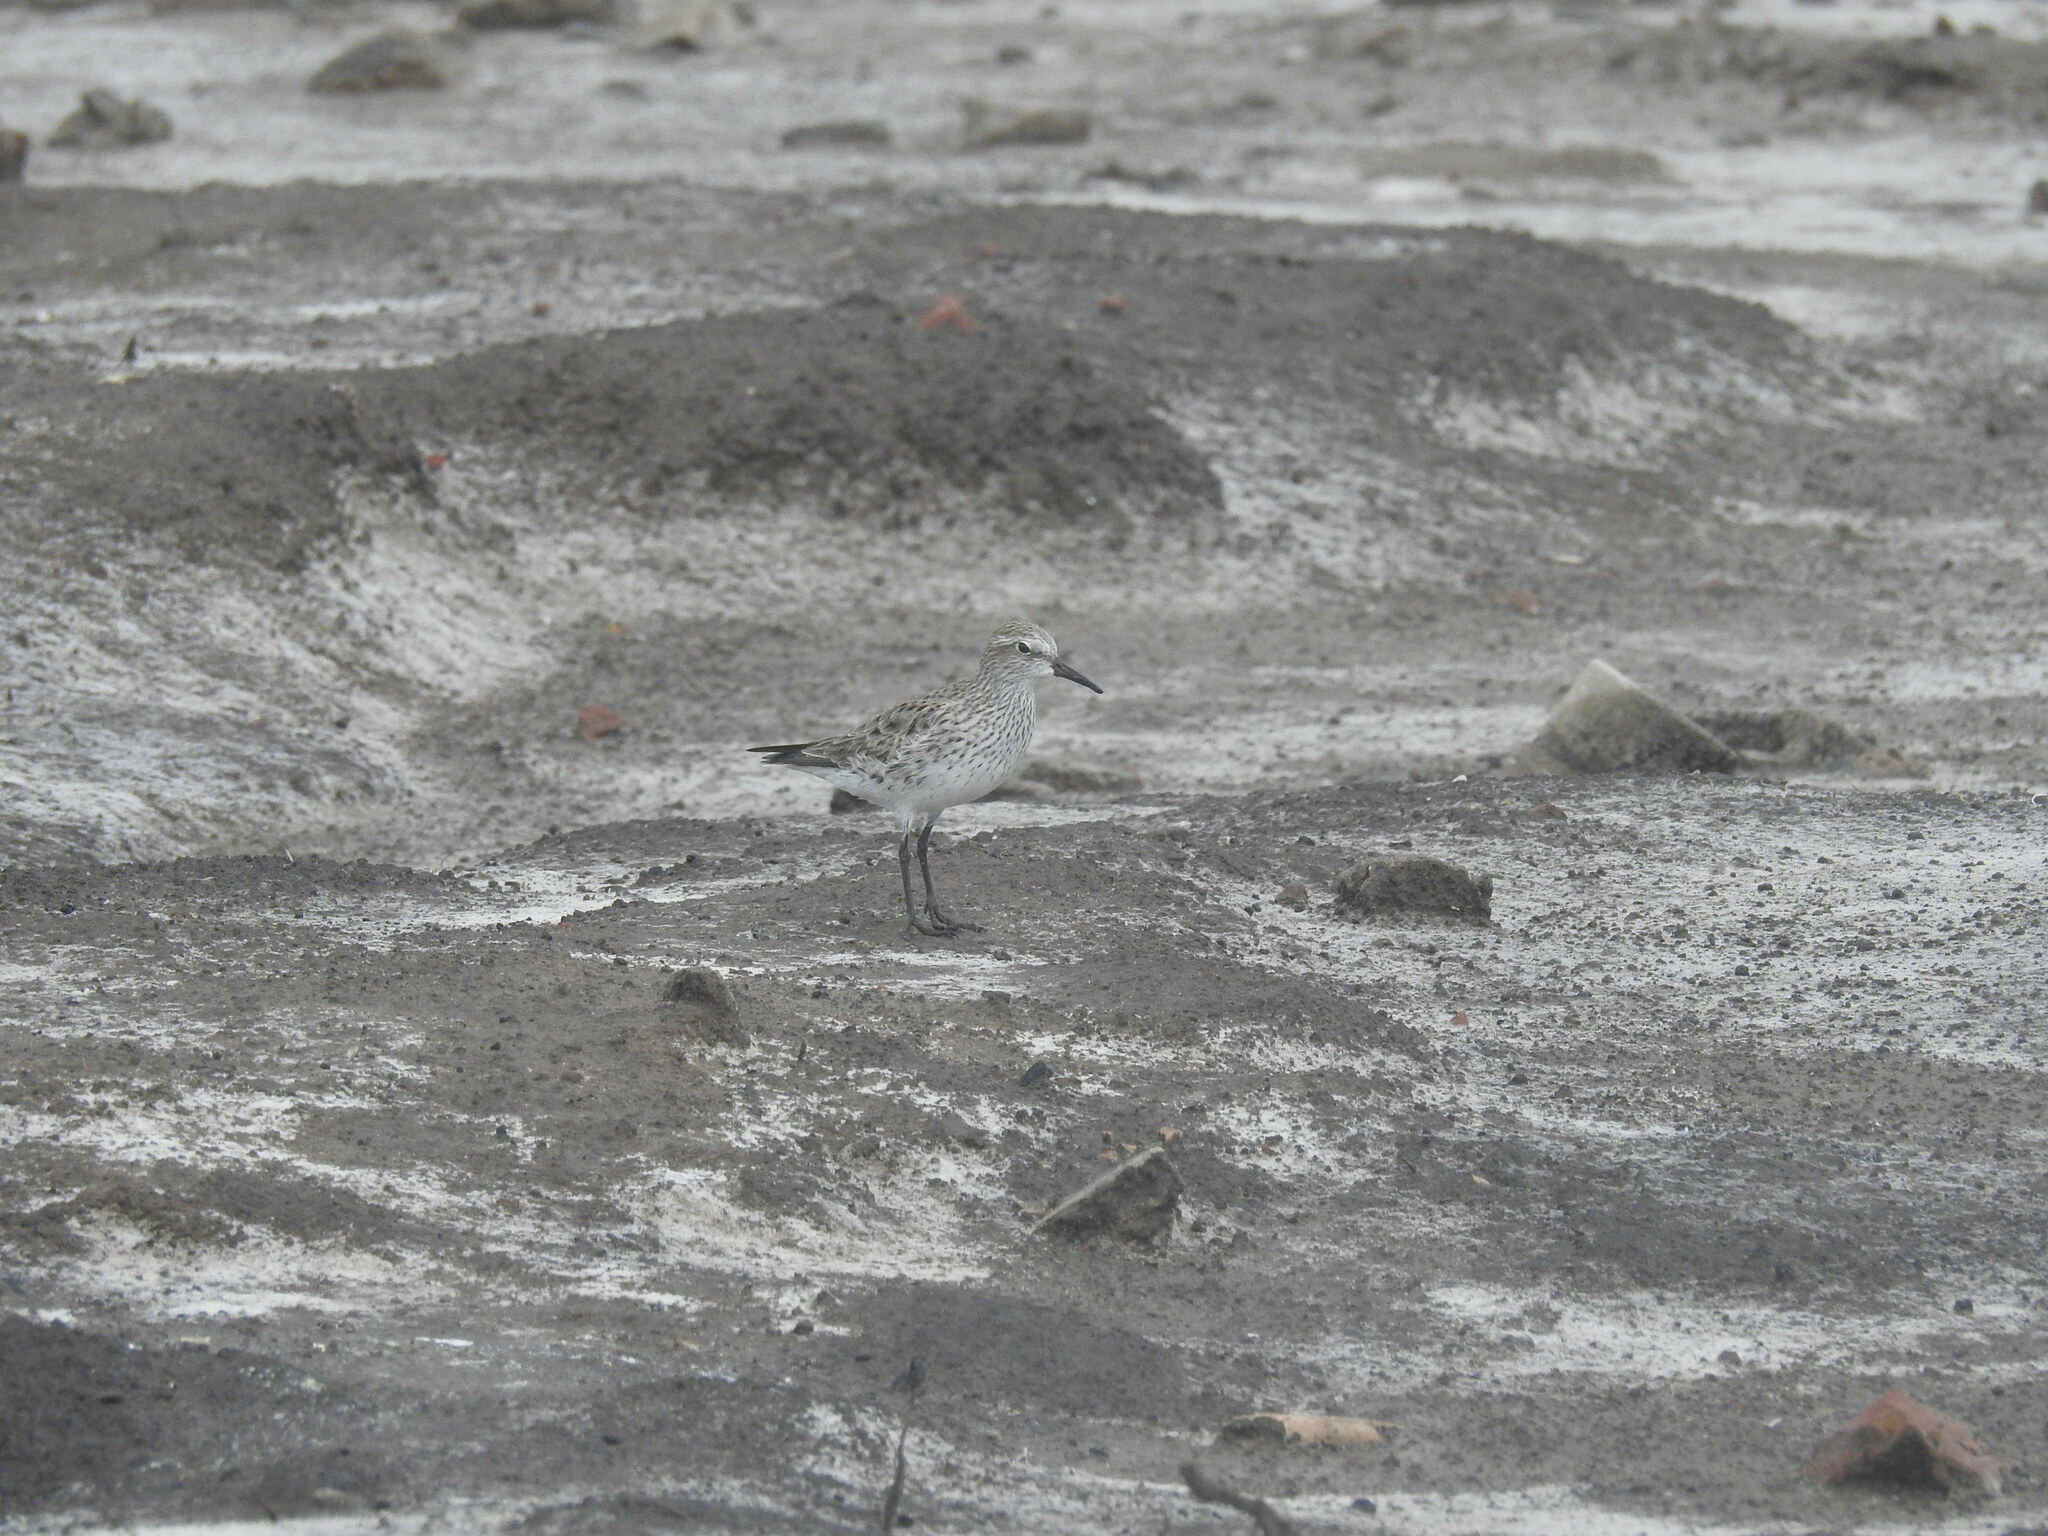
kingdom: Animalia
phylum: Chordata
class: Aves
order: Charadriiformes
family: Scolopacidae
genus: Calidris
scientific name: Calidris fuscicollis
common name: White-rumped sandpiper
